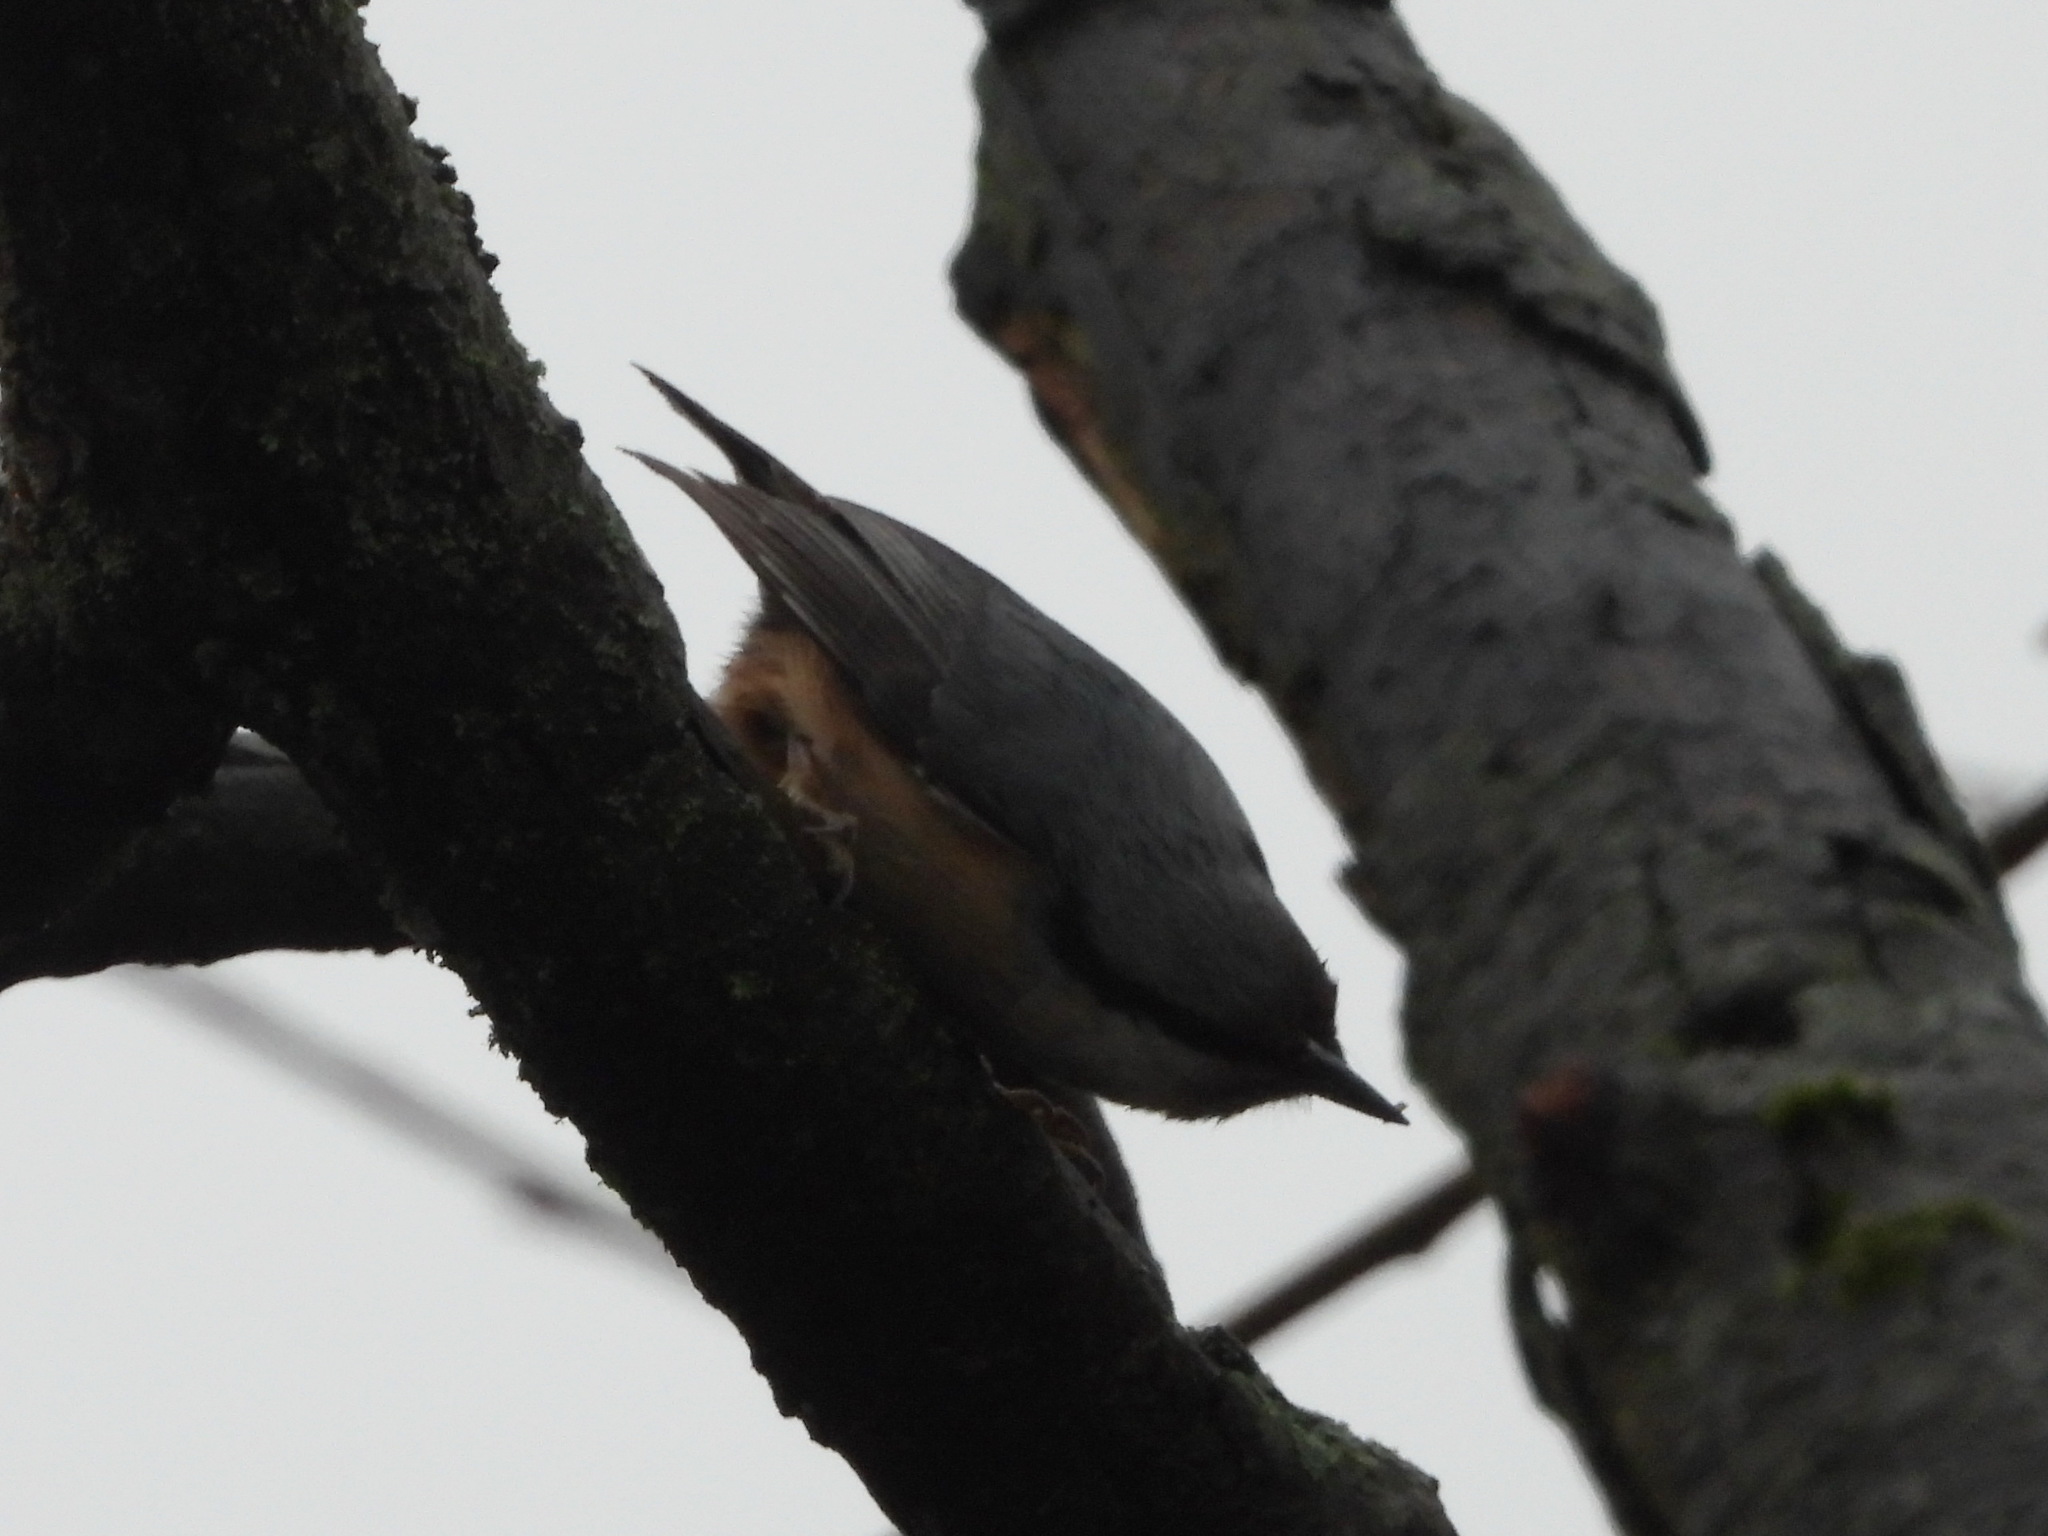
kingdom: Animalia
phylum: Chordata
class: Aves
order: Passeriformes
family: Sittidae
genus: Sitta
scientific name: Sitta europaea
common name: Eurasian nuthatch
